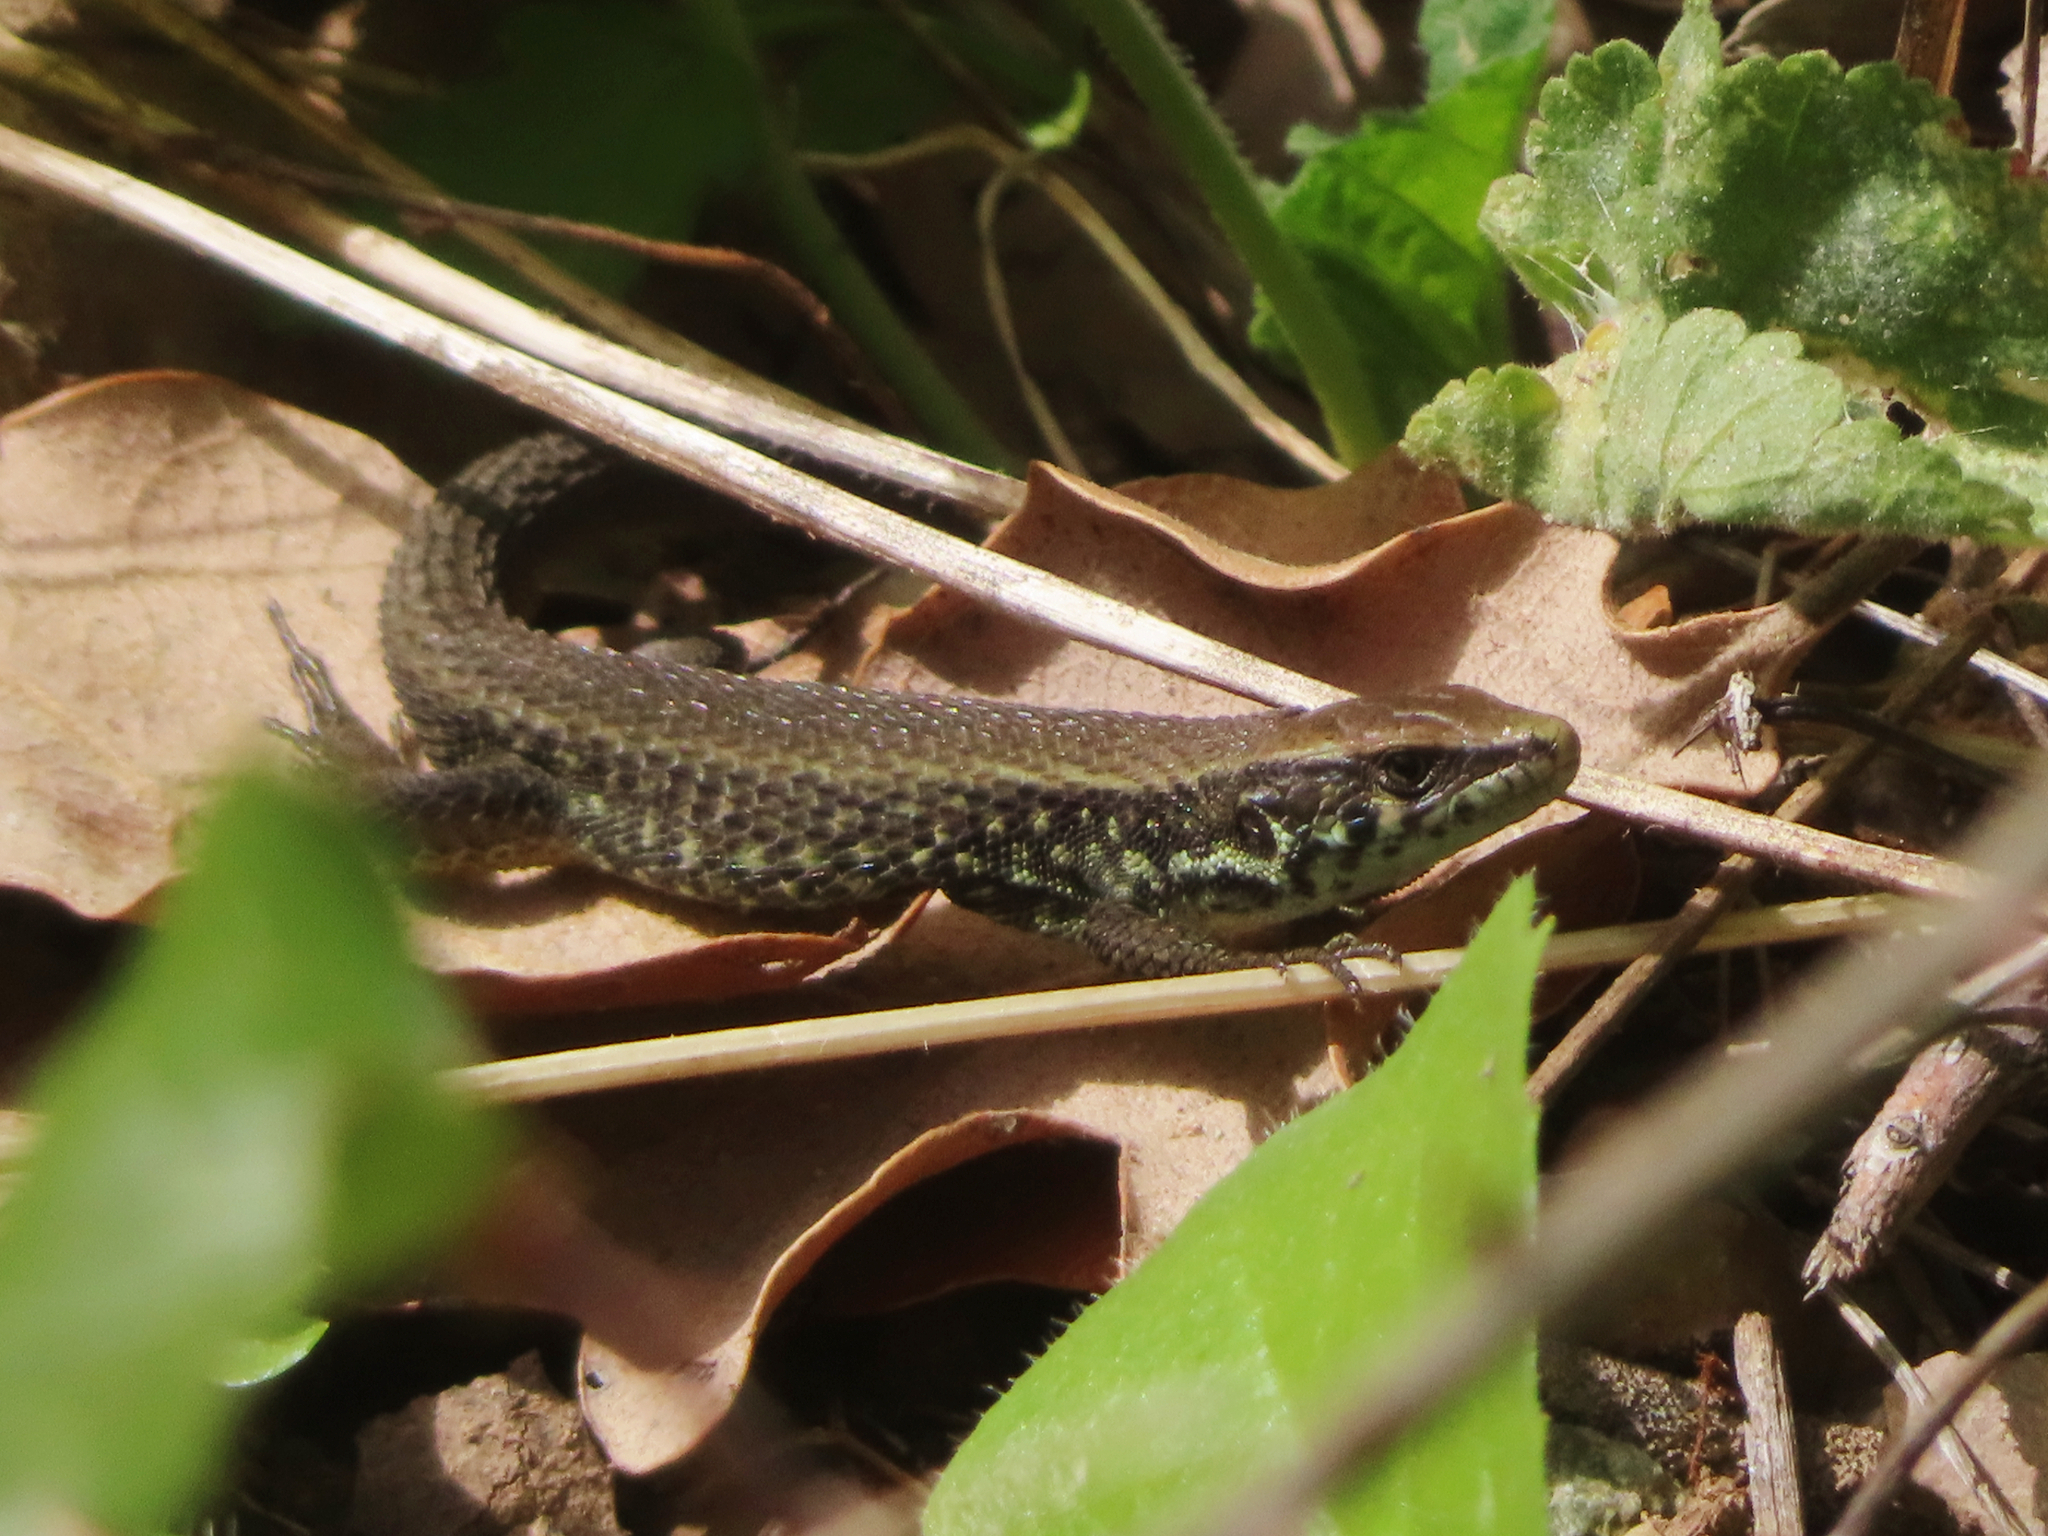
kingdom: Animalia
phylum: Chordata
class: Squamata
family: Lacertidae
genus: Algyroides
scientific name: Algyroides moreoticus
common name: Greek algyroides
